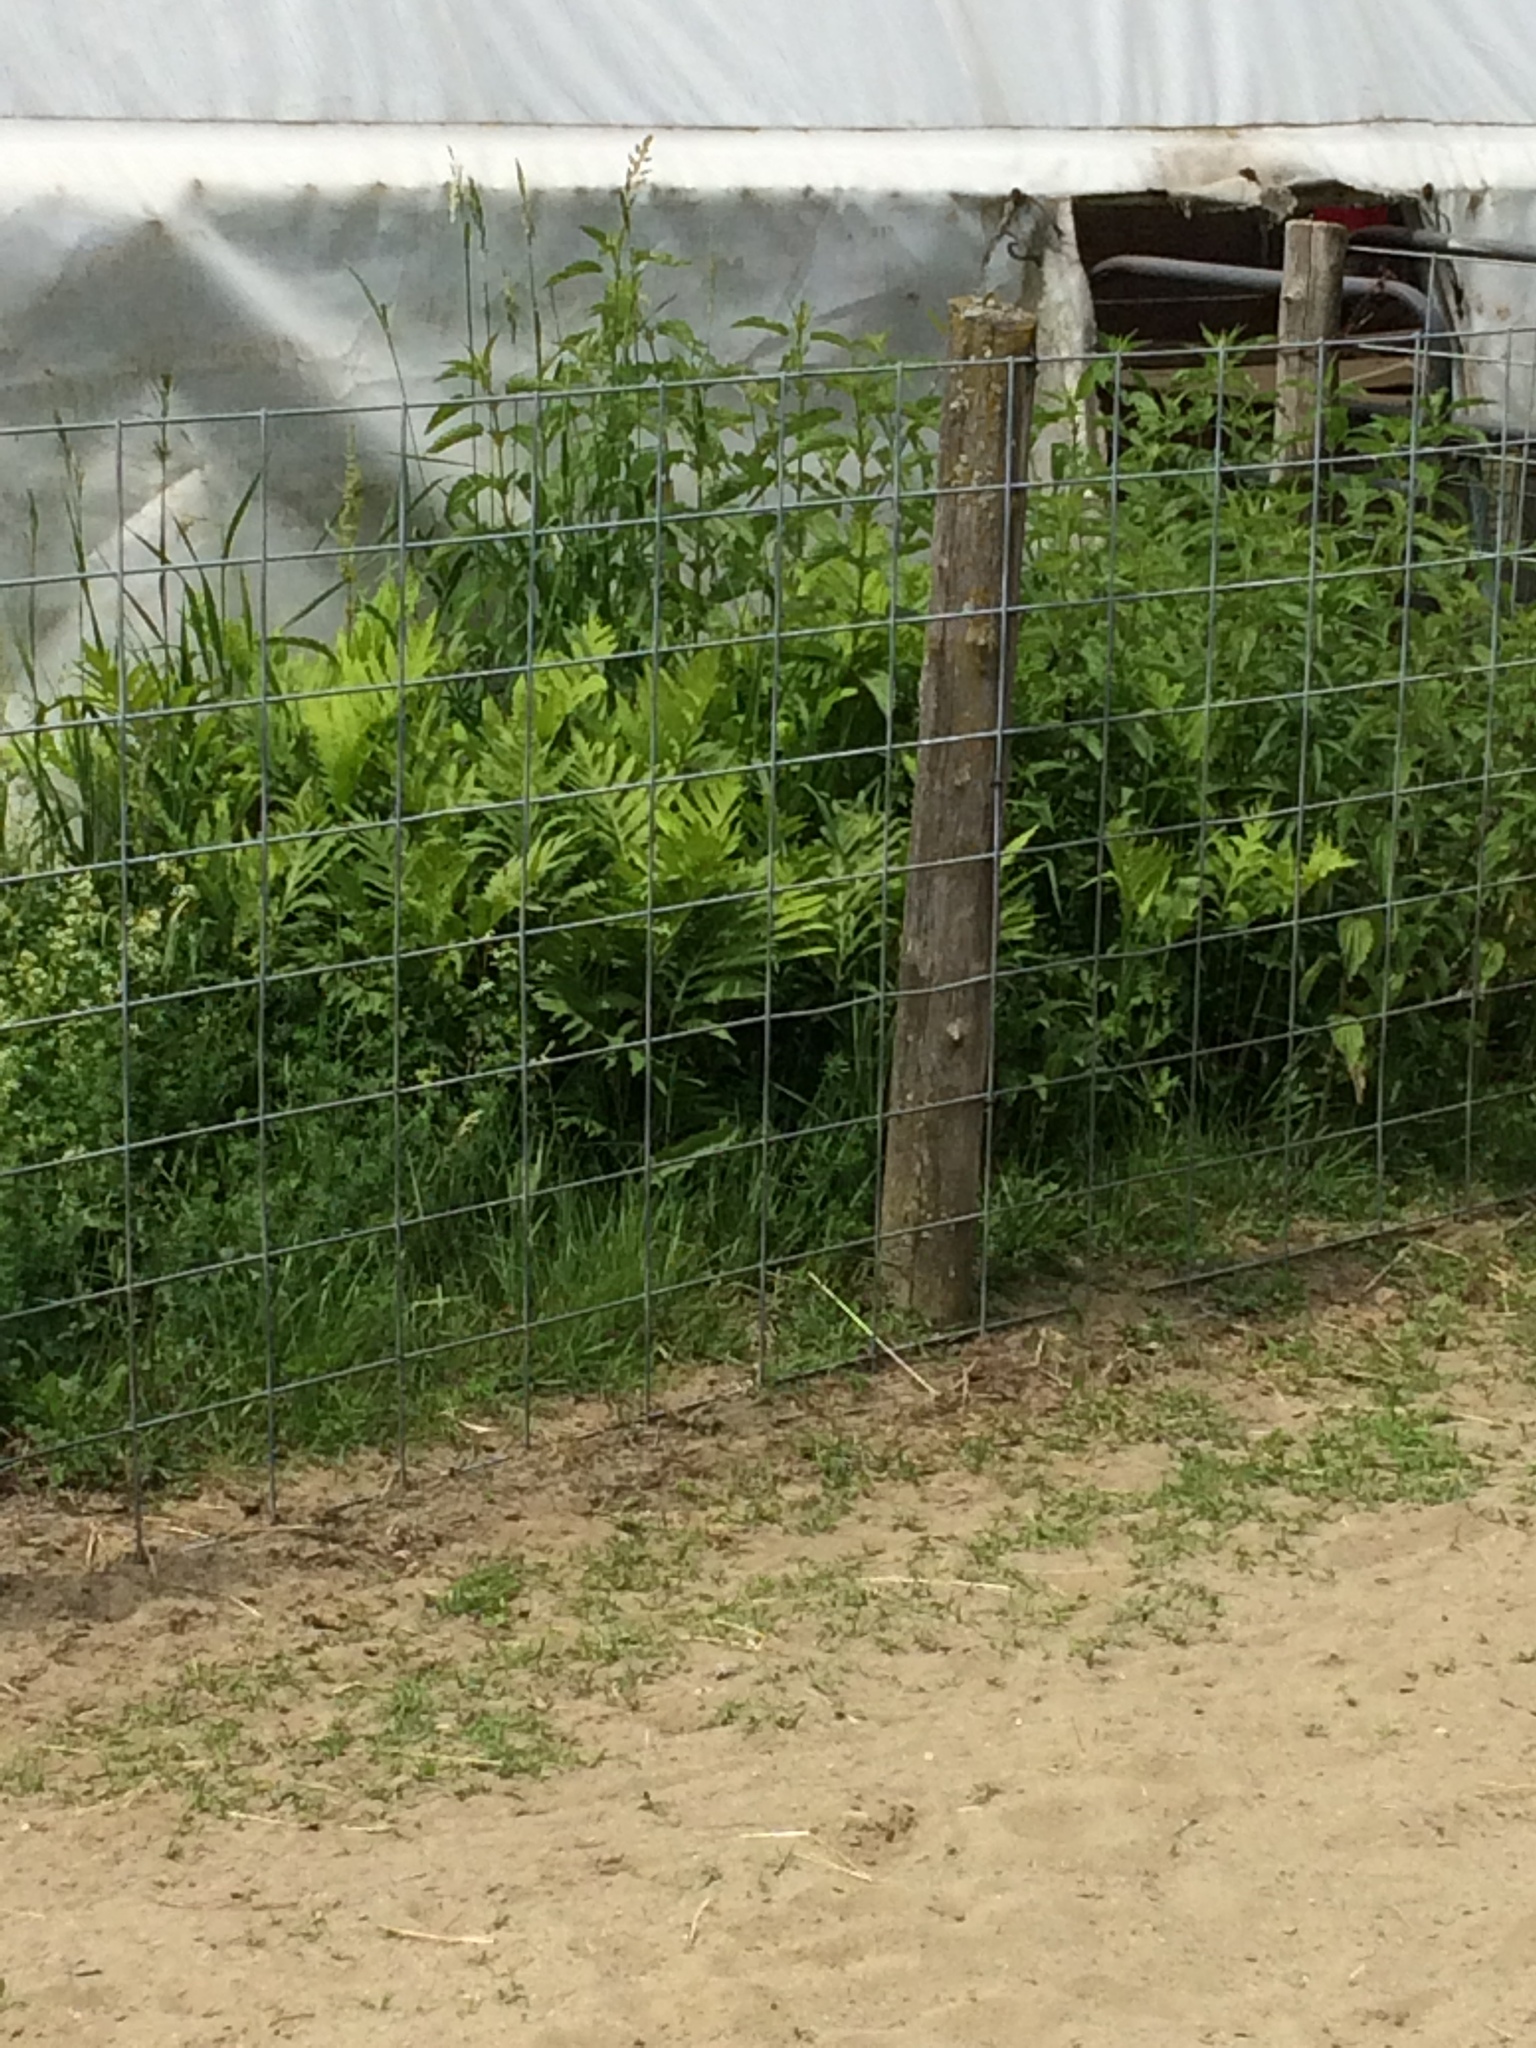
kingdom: Plantae
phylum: Tracheophyta
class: Polypodiopsida
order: Polypodiales
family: Onocleaceae
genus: Onoclea
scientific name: Onoclea sensibilis
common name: Sensitive fern
